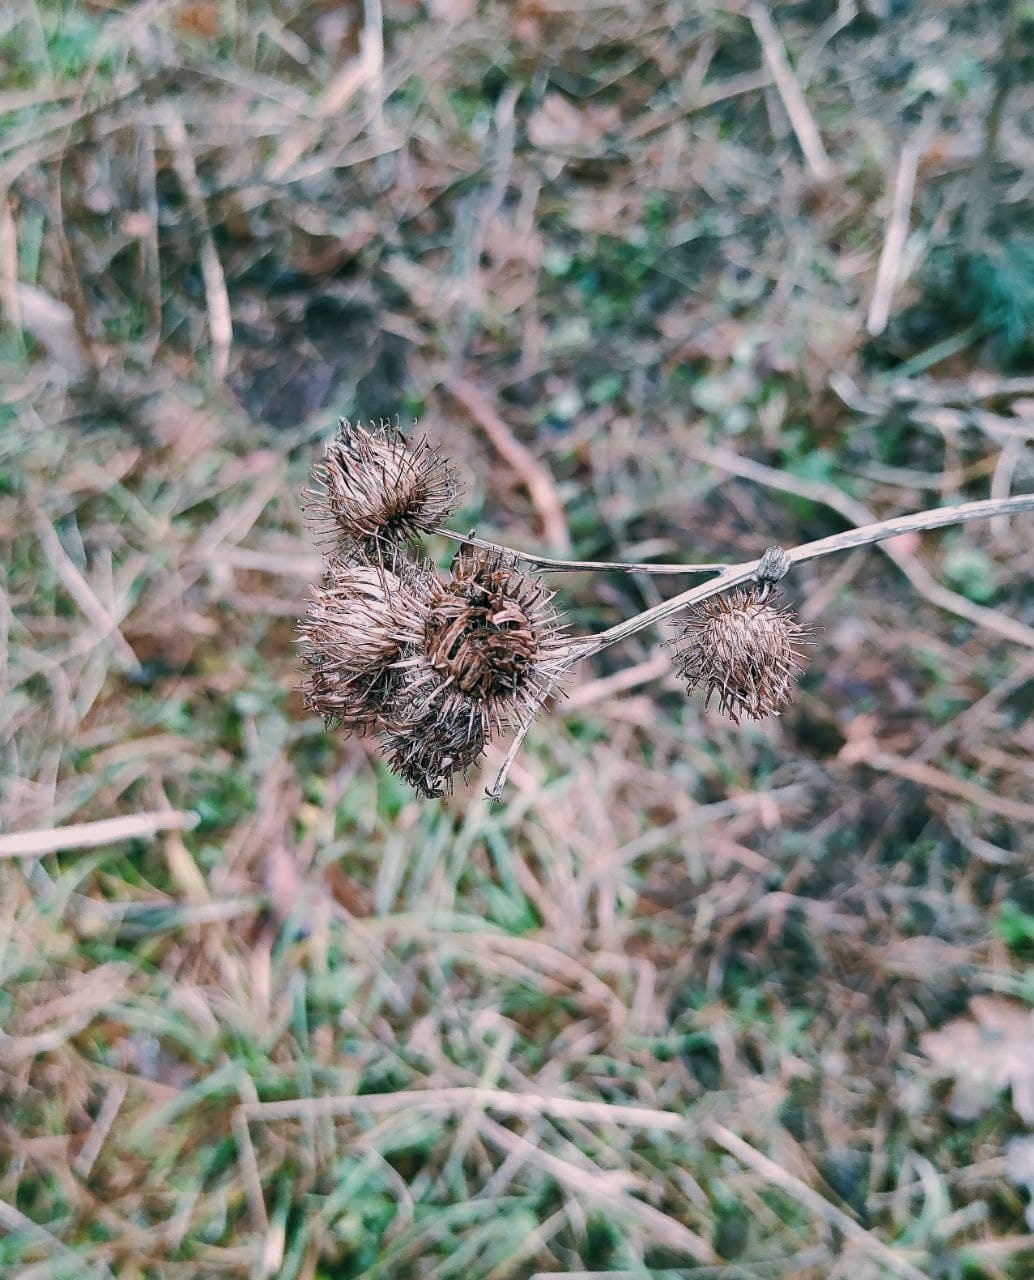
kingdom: Plantae
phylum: Tracheophyta
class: Magnoliopsida
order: Asterales
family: Asteraceae
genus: Arctium
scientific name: Arctium tomentosum
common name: Woolly burdock
